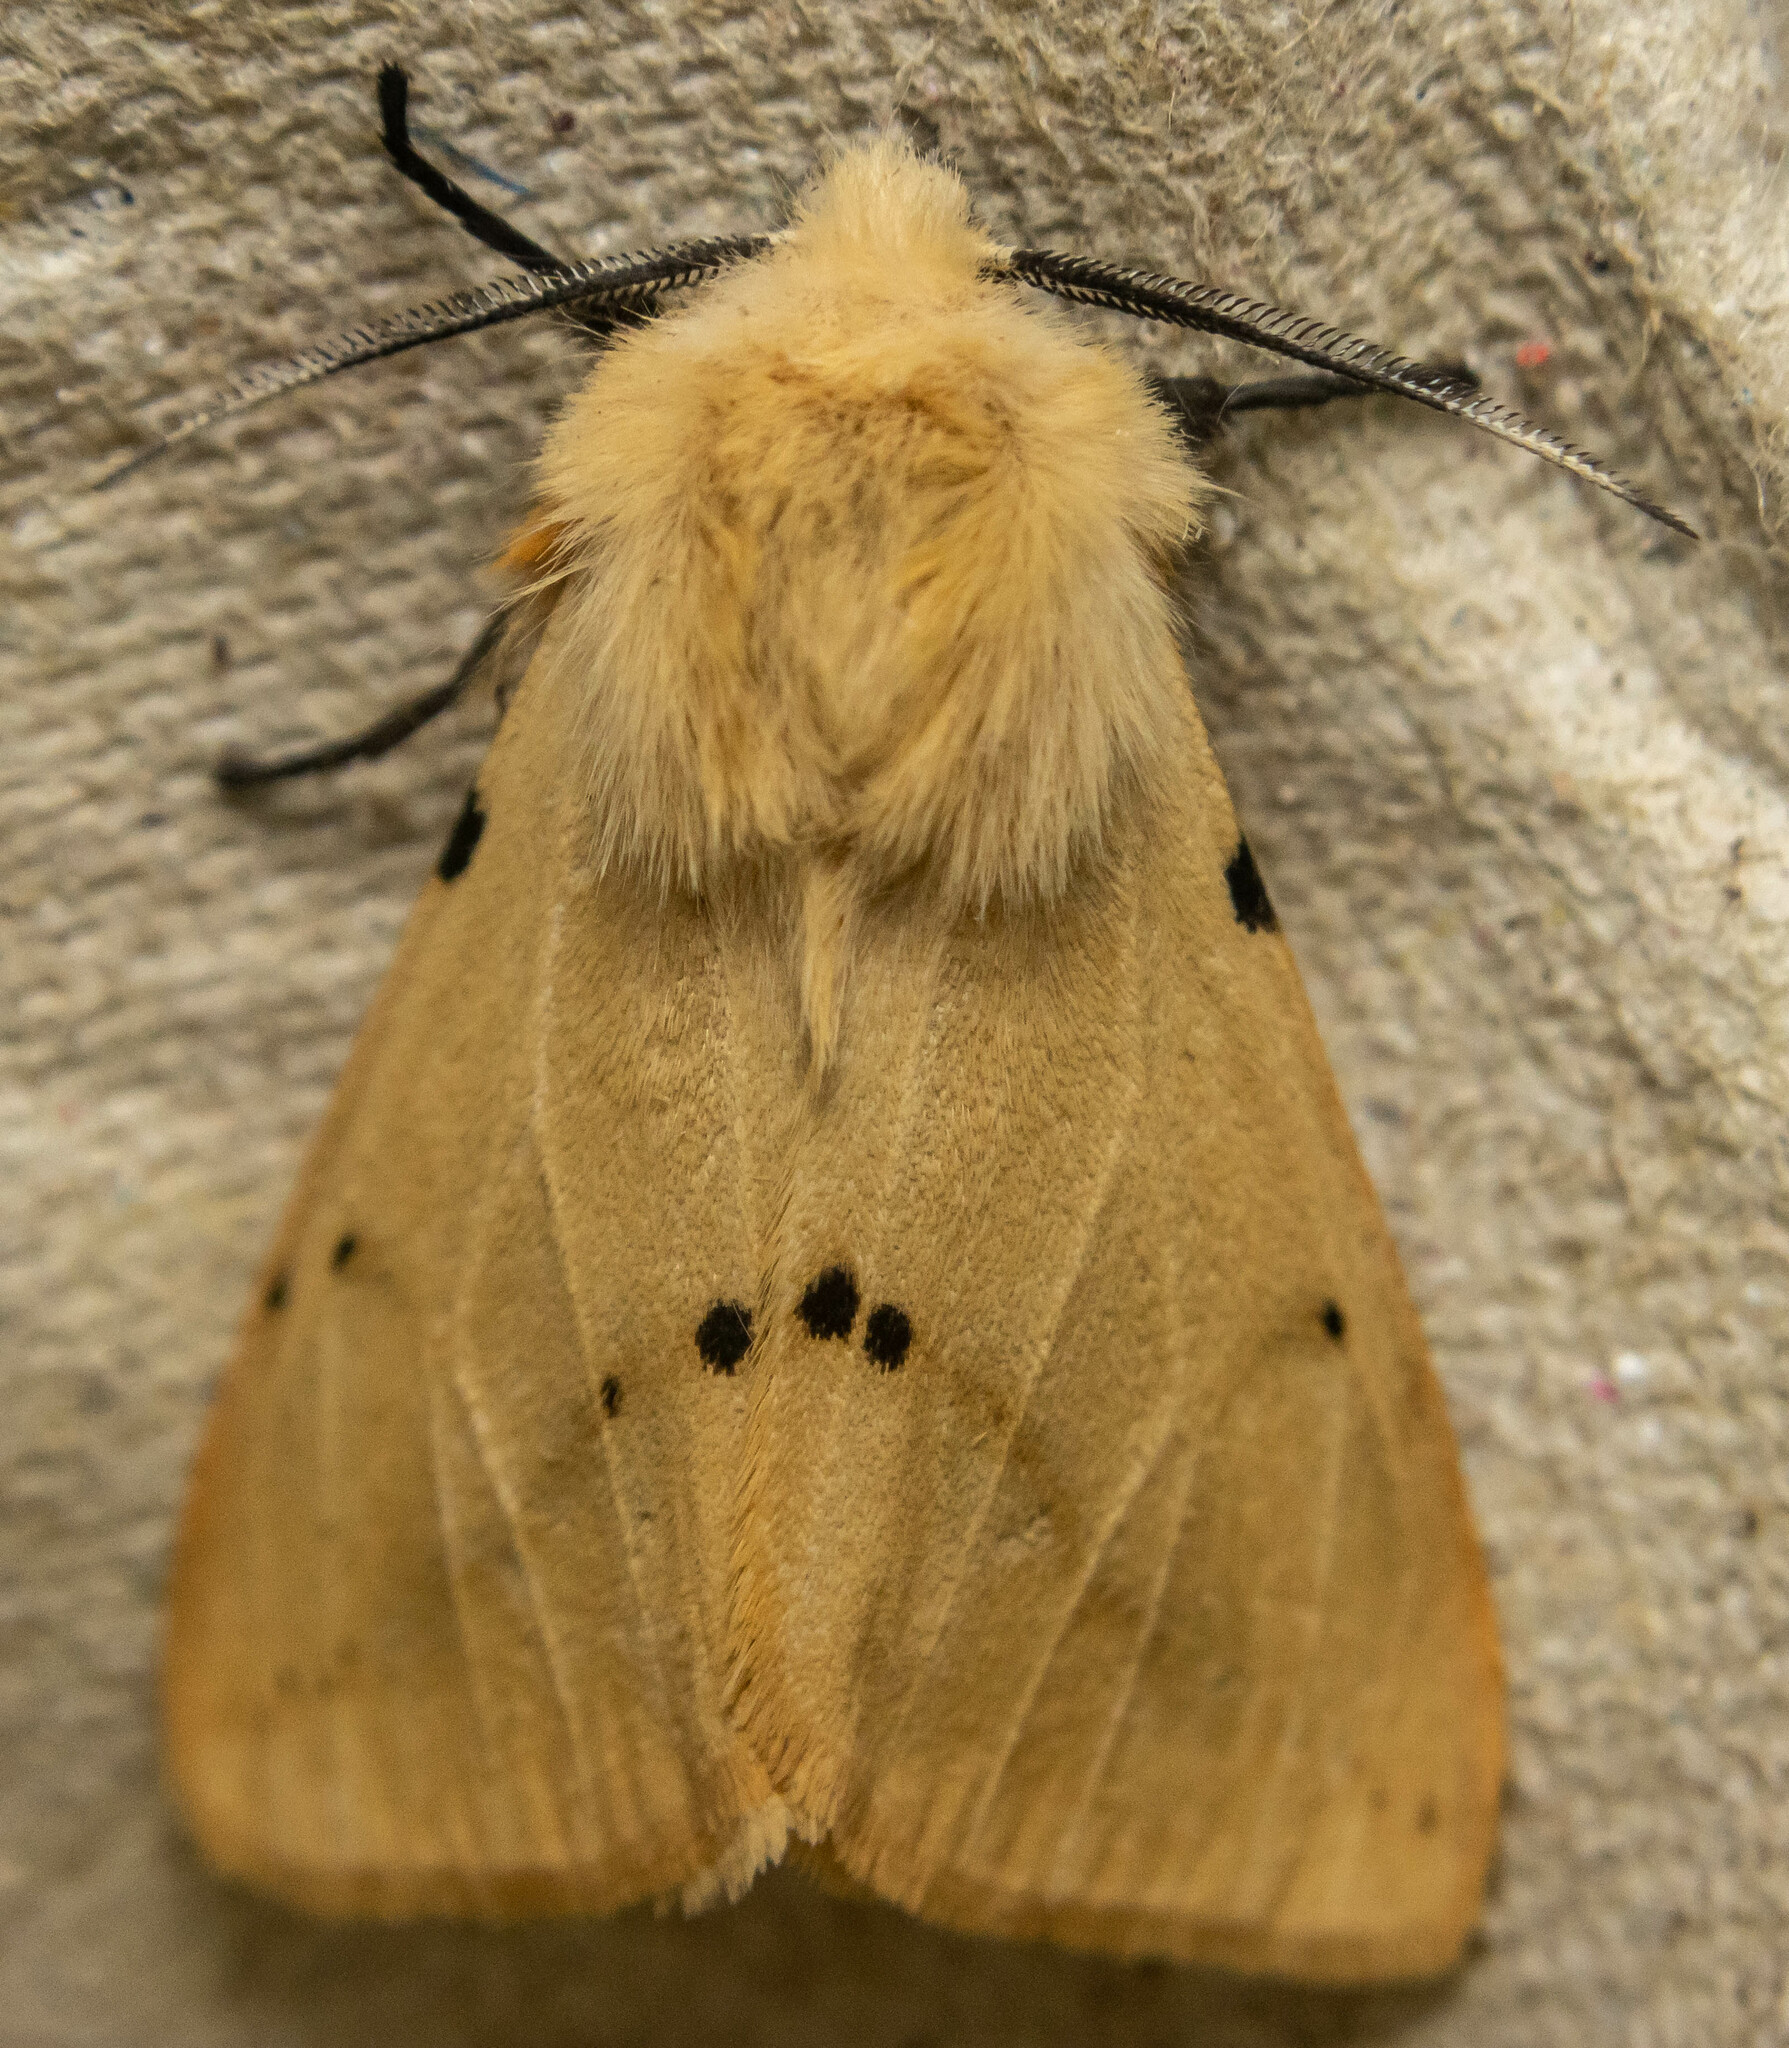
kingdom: Animalia
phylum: Arthropoda
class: Insecta
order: Lepidoptera
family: Erebidae
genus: Spilarctia
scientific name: Spilarctia lutea
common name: Buff ermine
